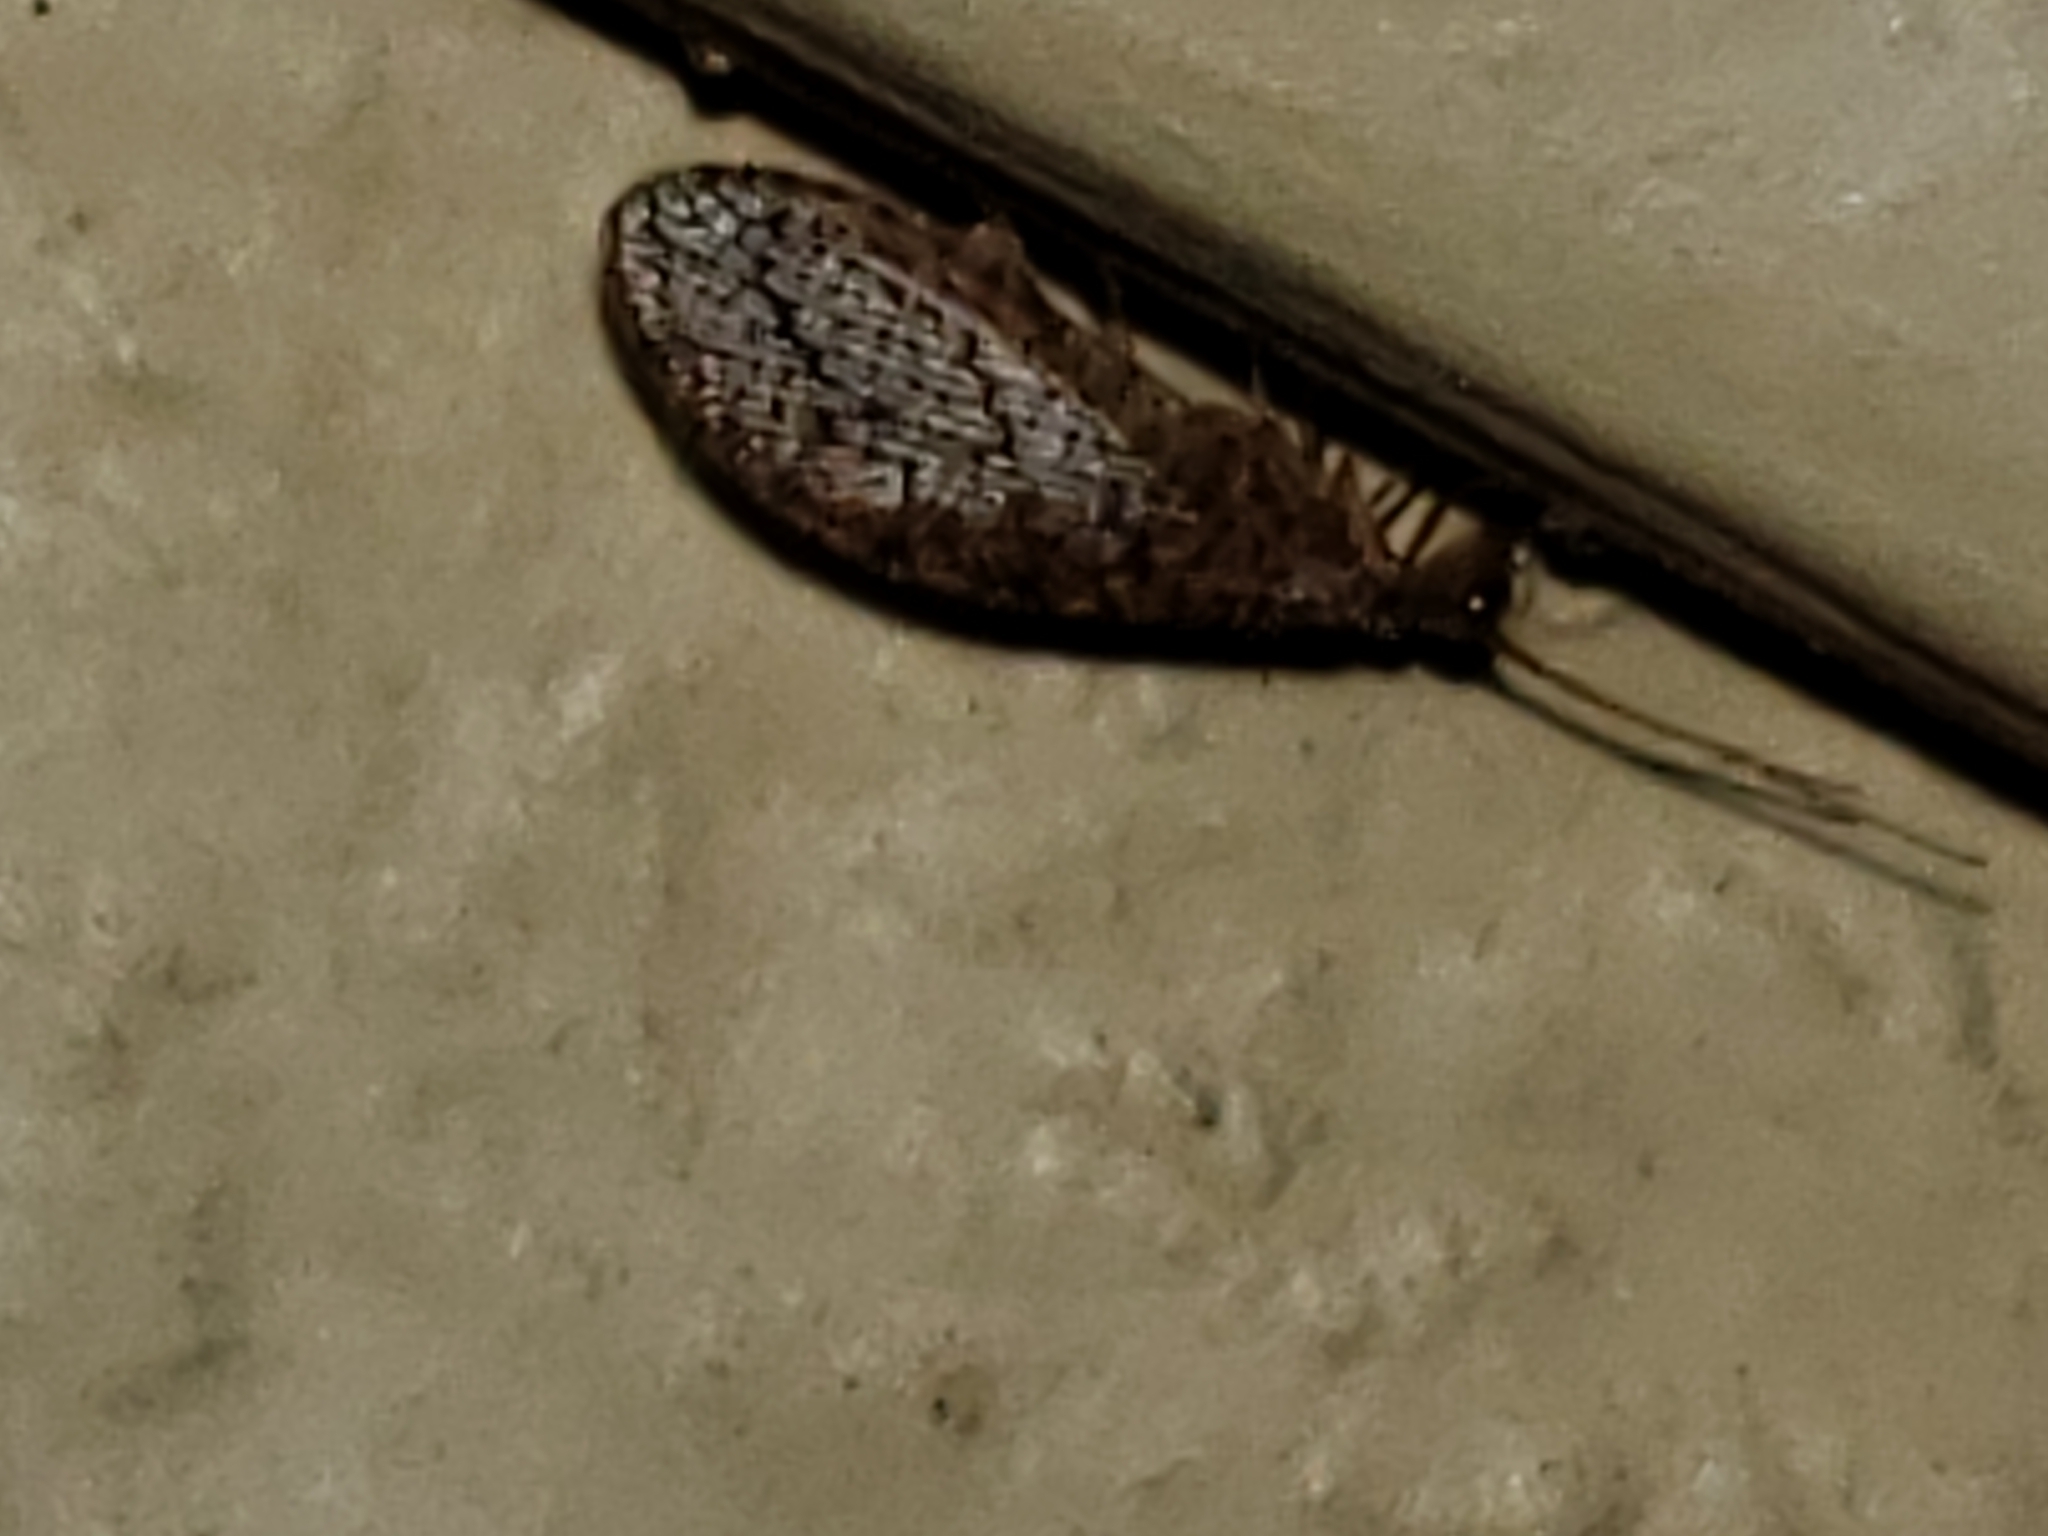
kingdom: Animalia
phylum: Arthropoda
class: Insecta
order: Neuroptera
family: Hemerobiidae
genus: Micromus
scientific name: Micromus posticus
